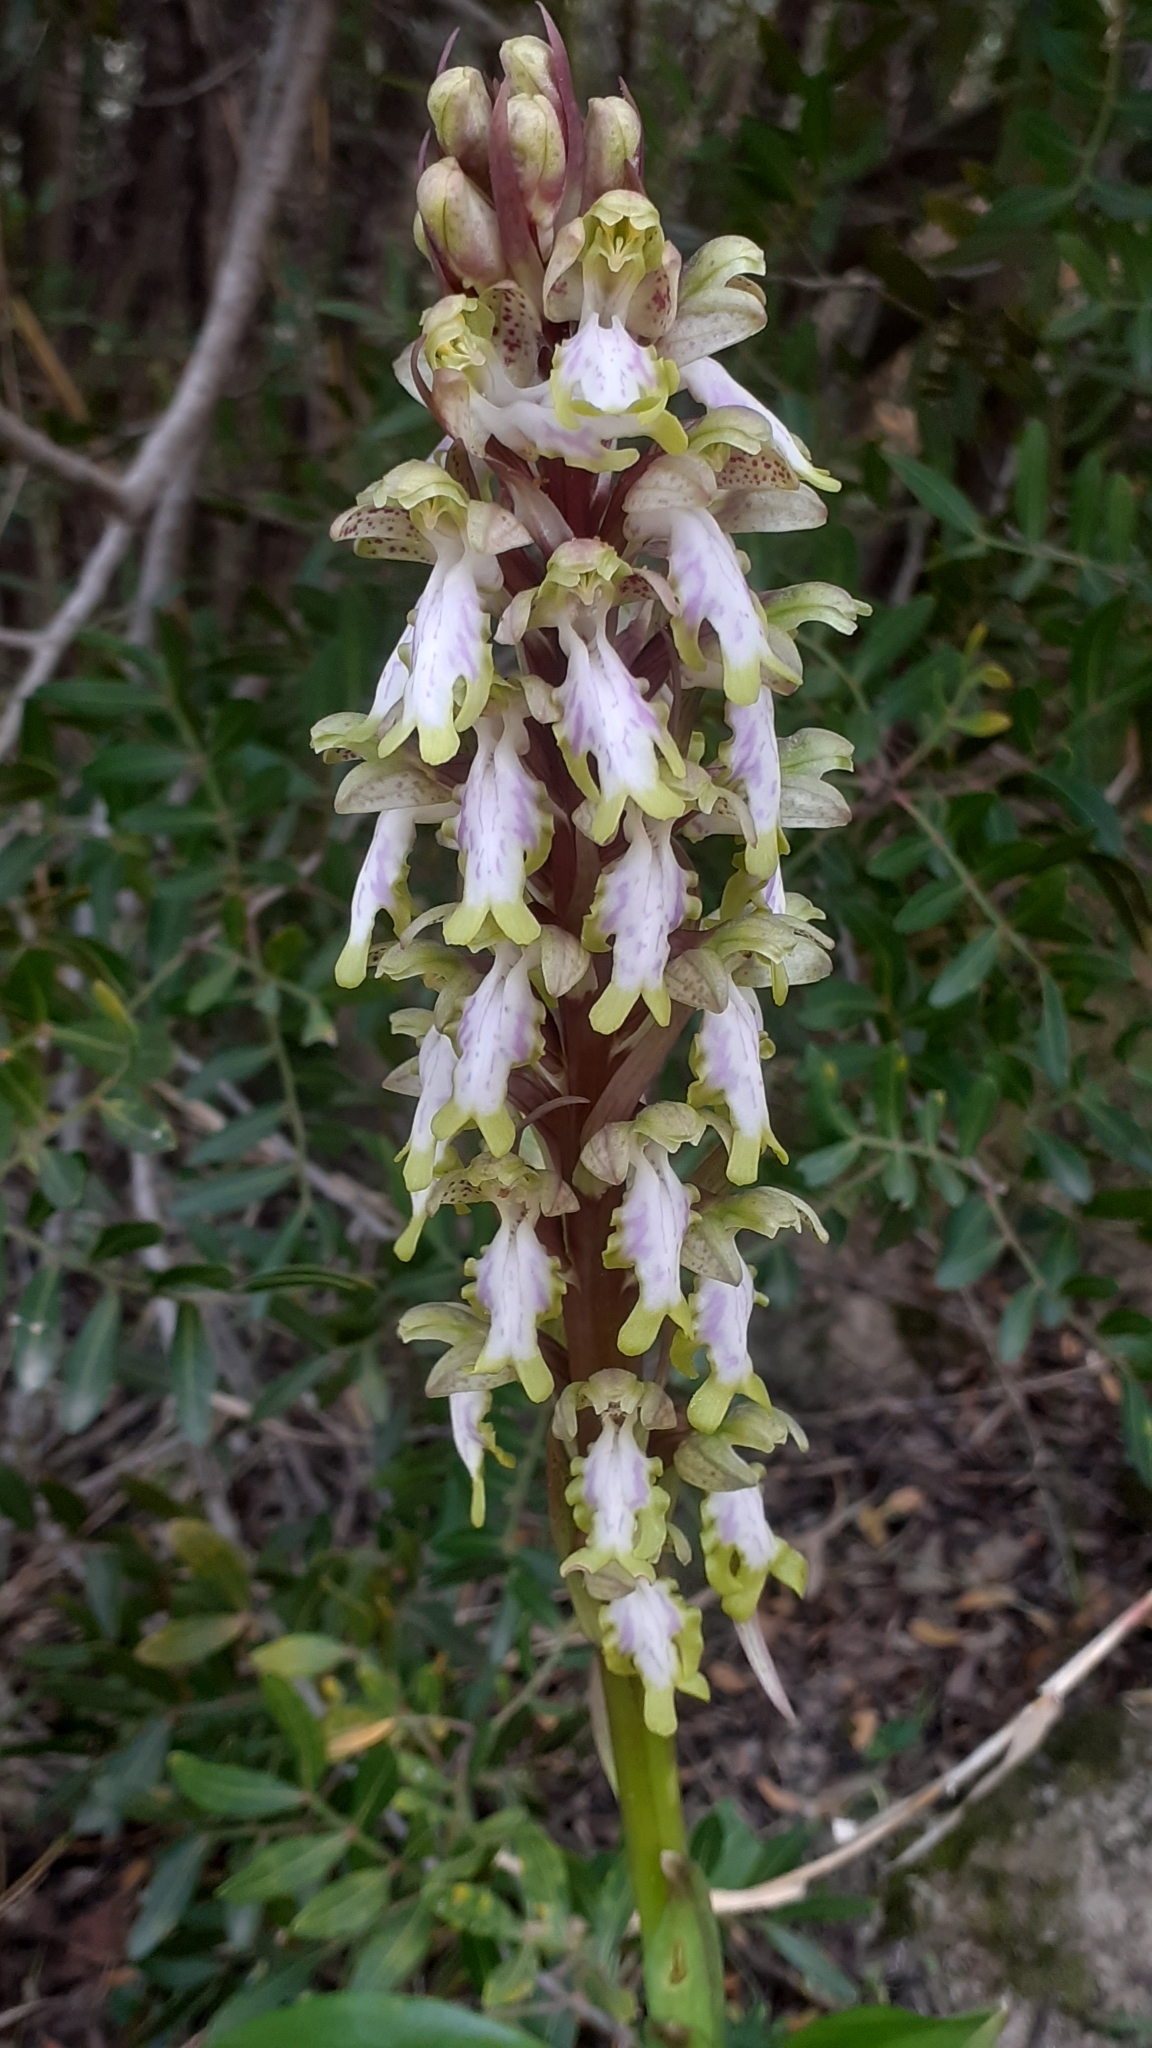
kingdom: Plantae
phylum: Tracheophyta
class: Liliopsida
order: Asparagales
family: Orchidaceae
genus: Himantoglossum
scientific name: Himantoglossum robertianum
